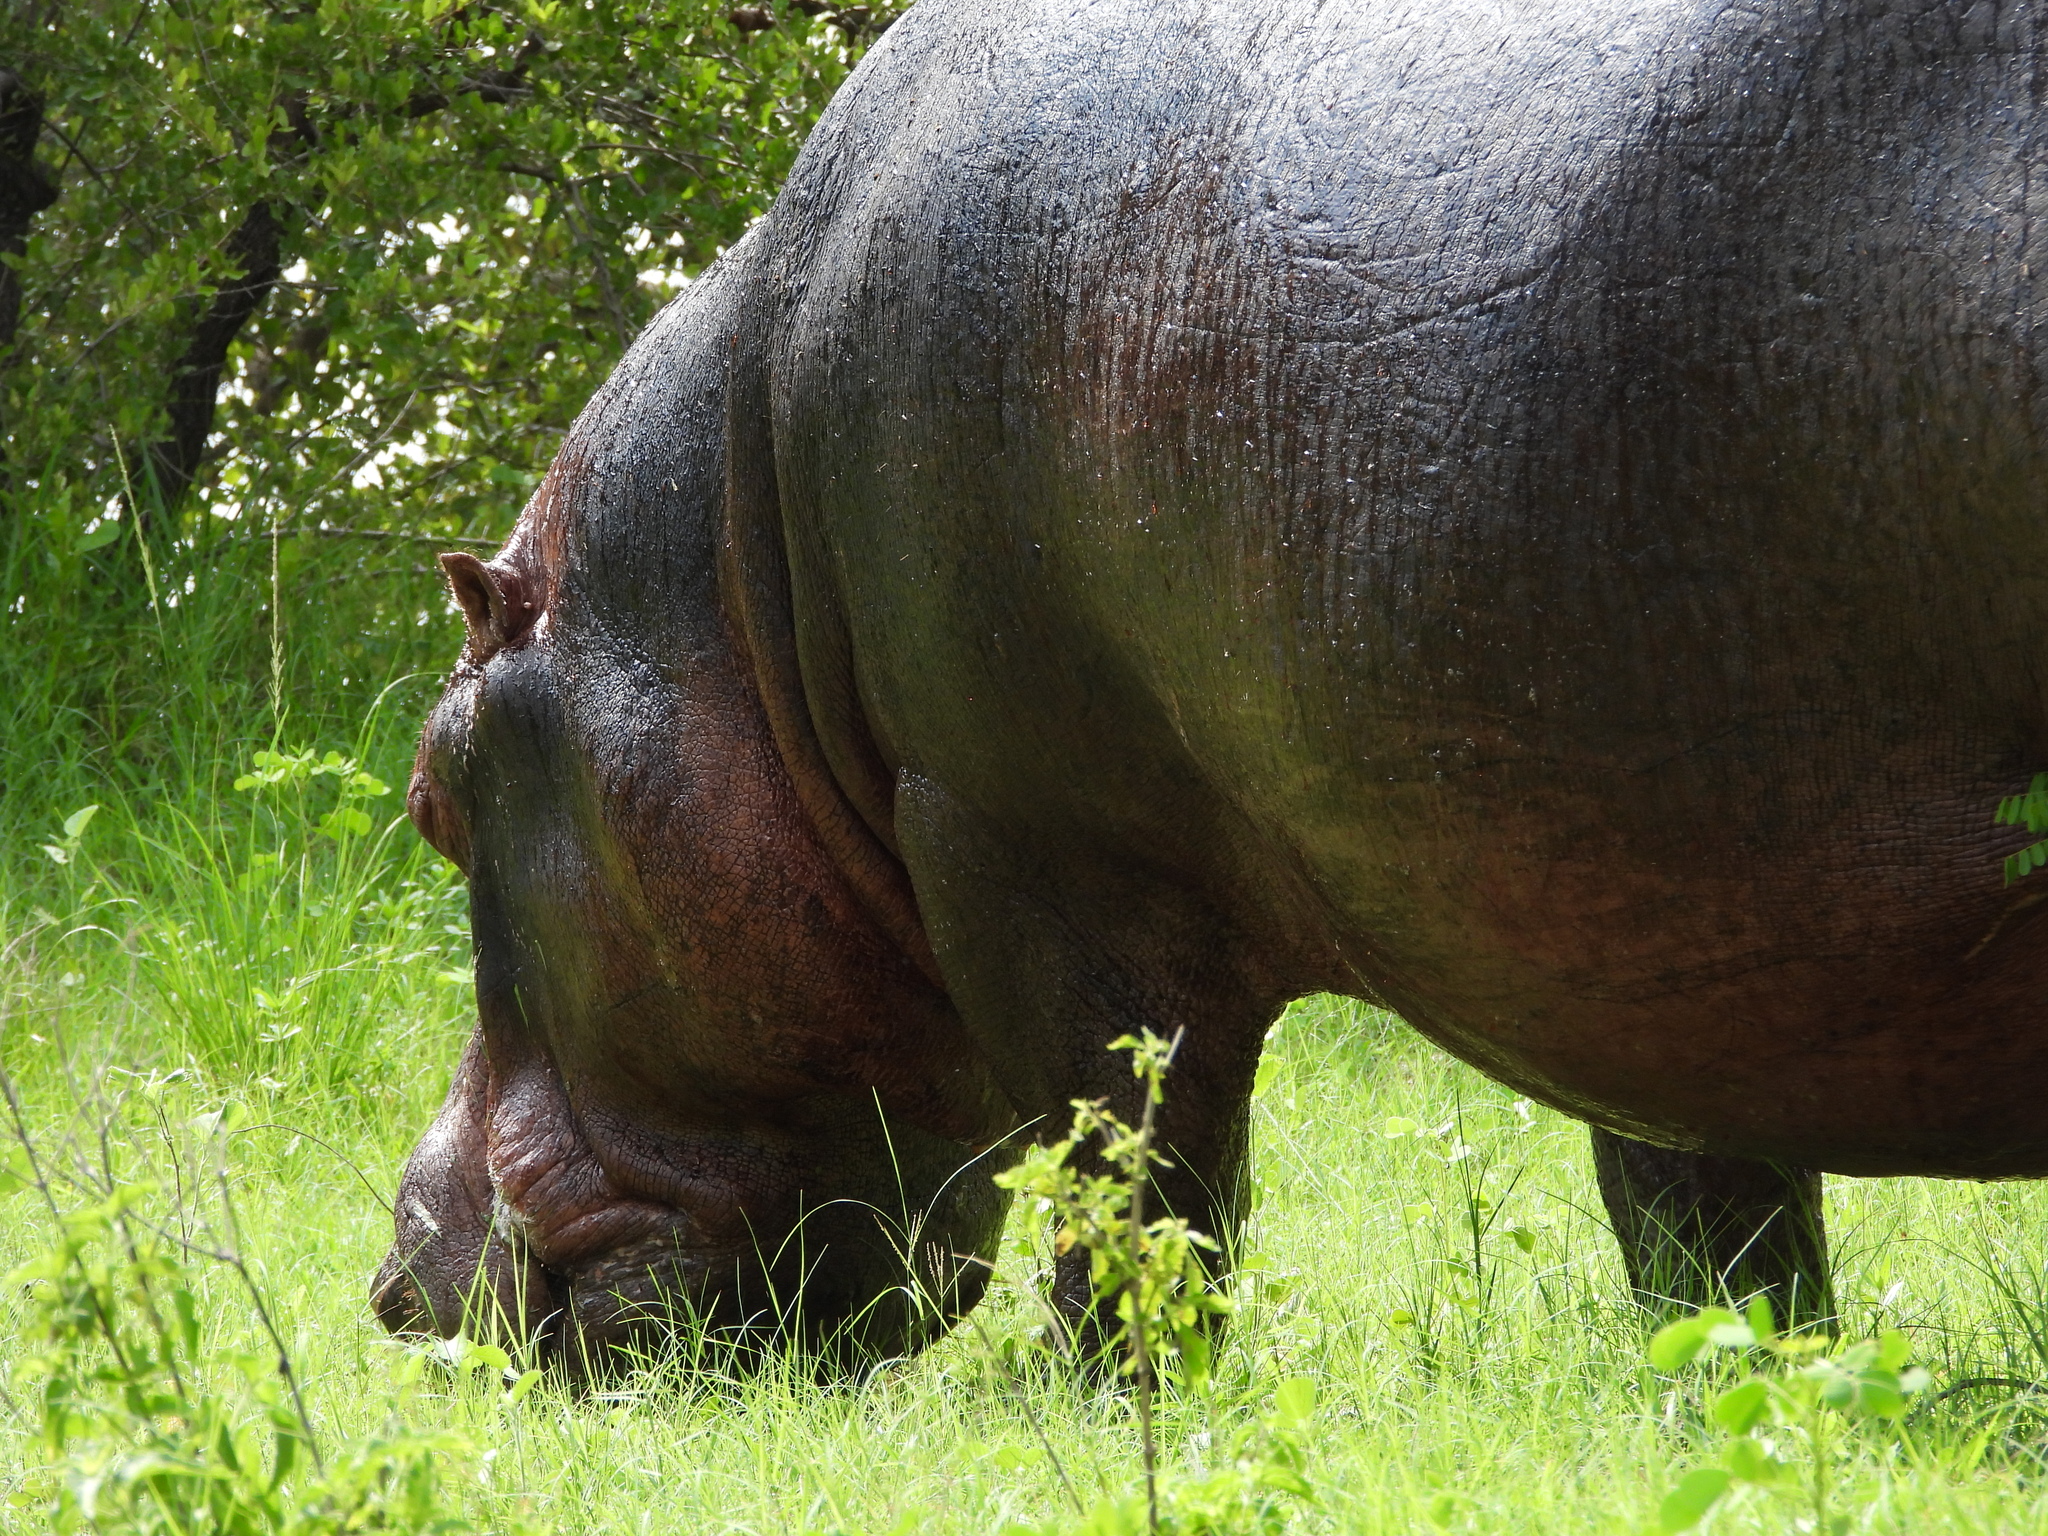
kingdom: Animalia
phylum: Chordata
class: Mammalia
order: Artiodactyla
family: Hippopotamidae
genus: Hippopotamus
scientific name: Hippopotamus amphibius
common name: Common hippopotamus
